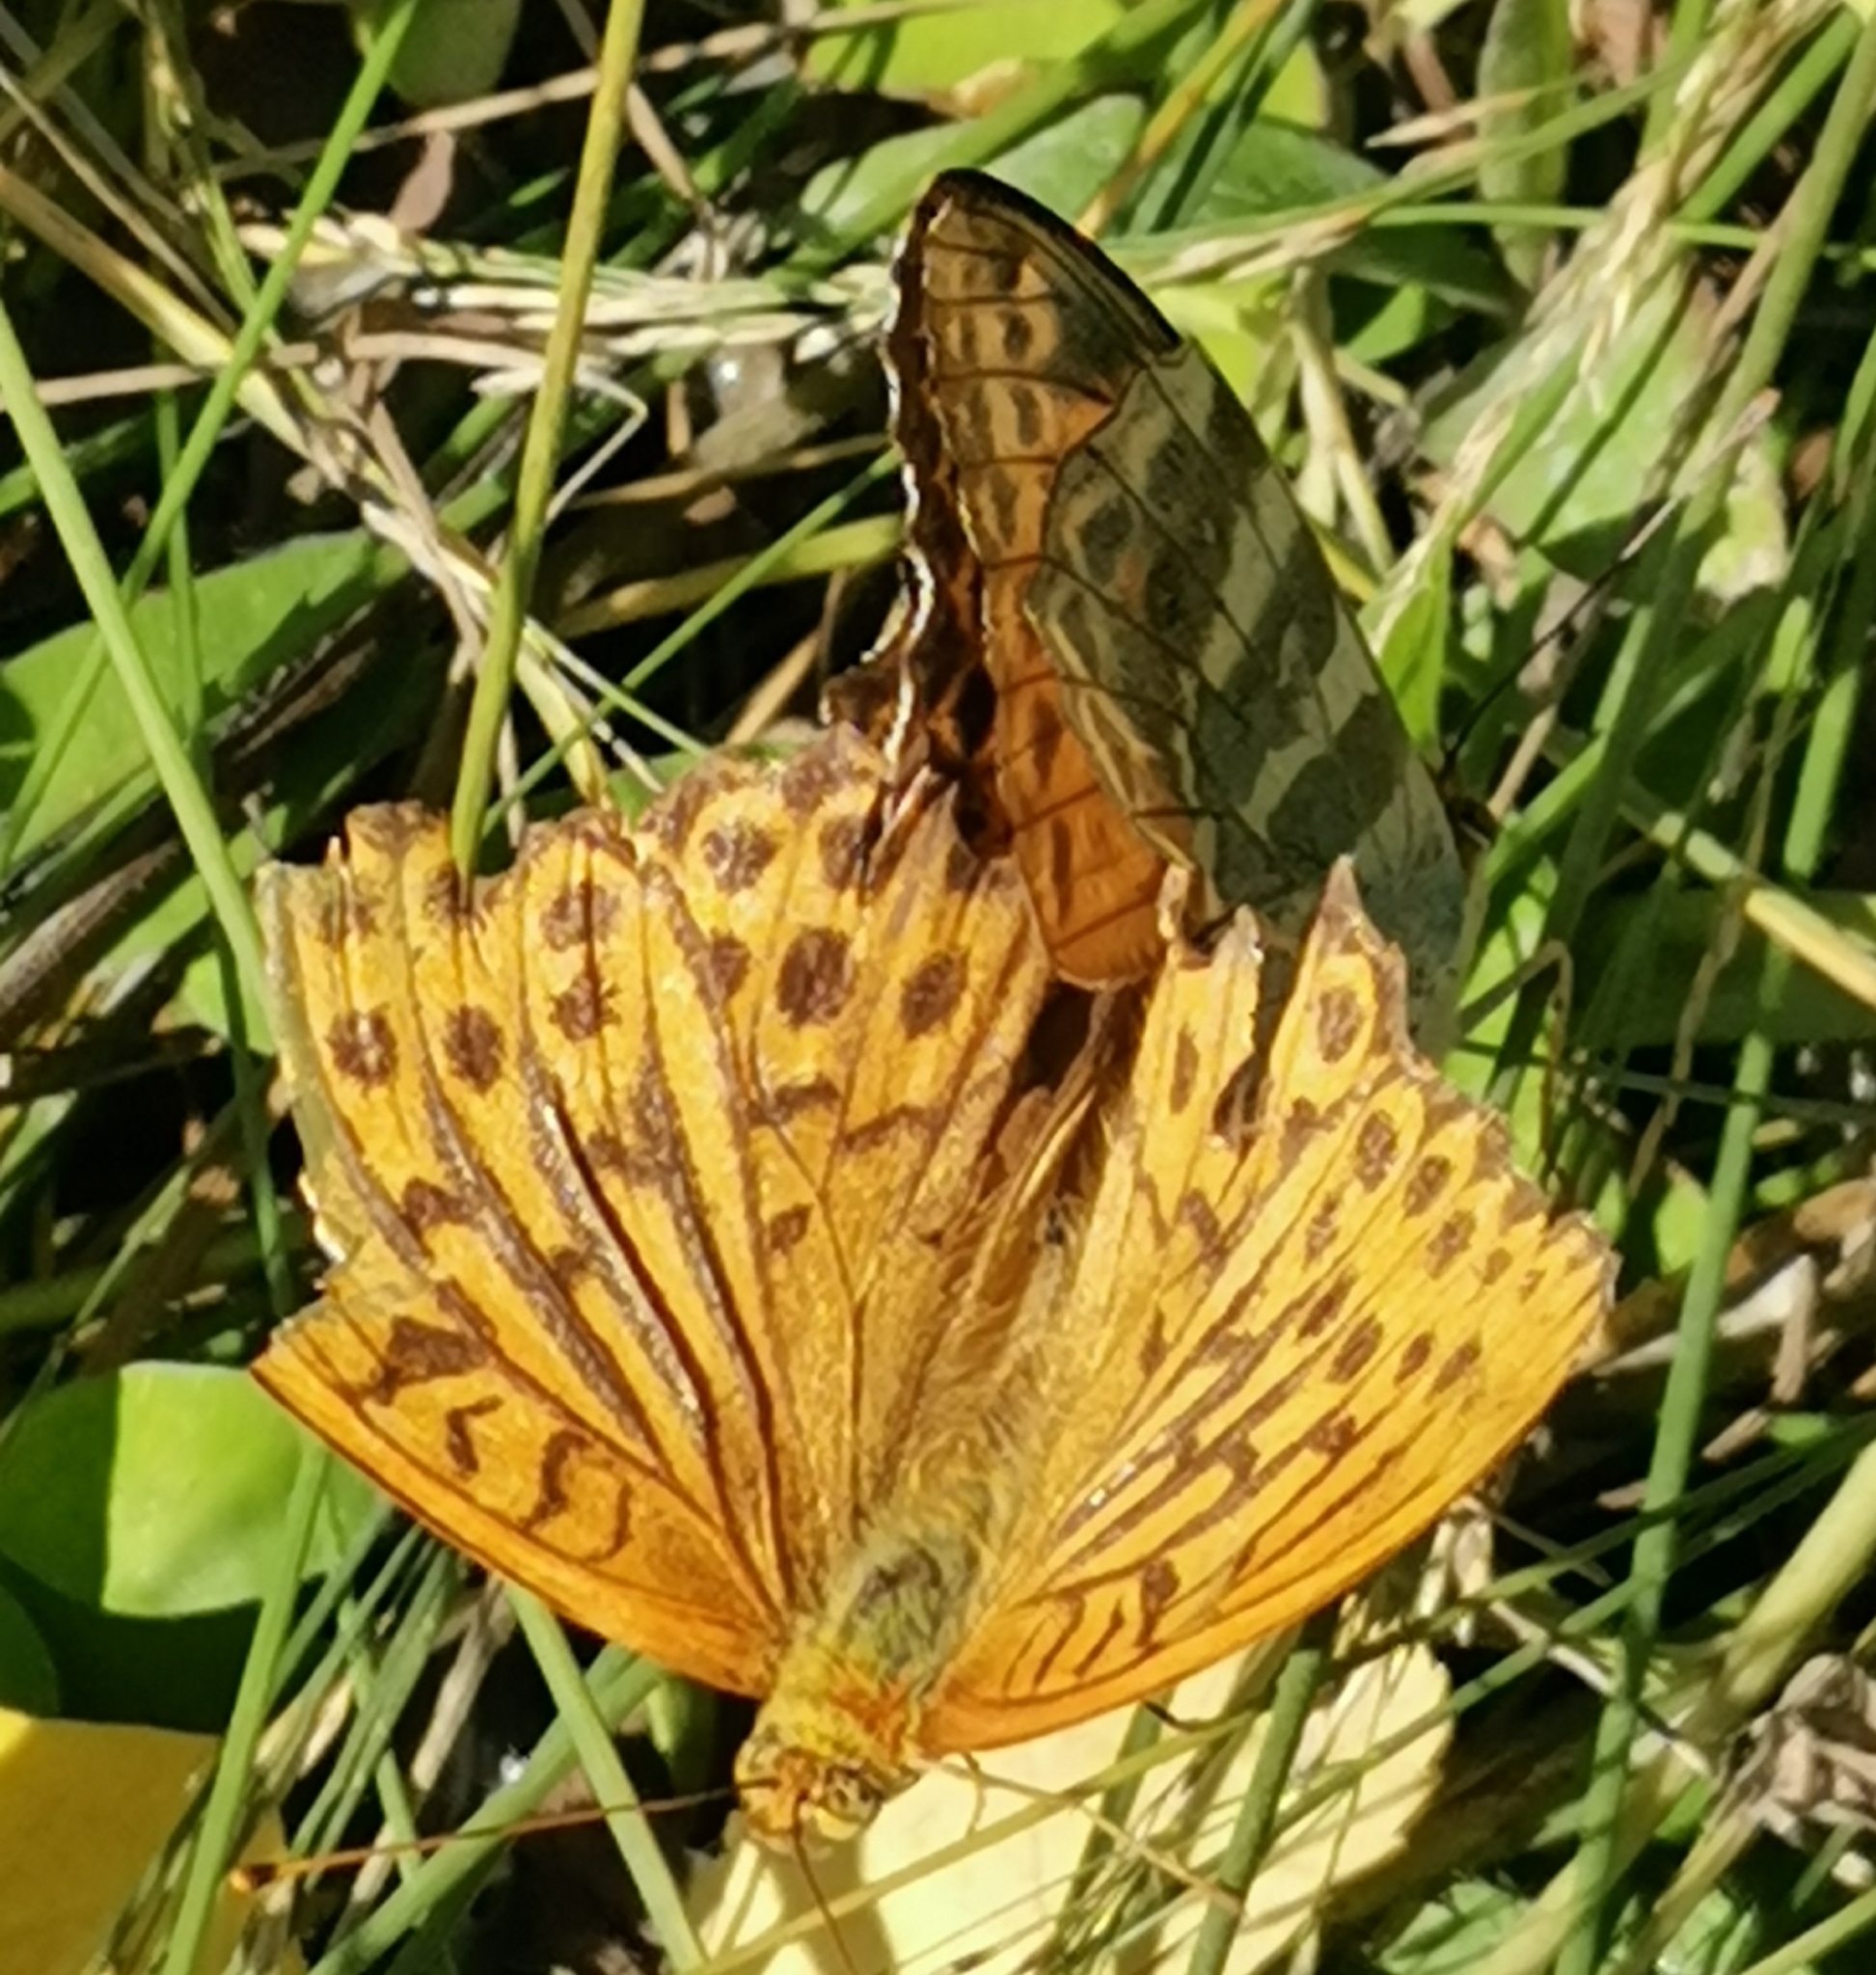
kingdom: Animalia
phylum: Arthropoda
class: Insecta
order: Lepidoptera
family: Nymphalidae
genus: Argynnis
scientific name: Argynnis paphia
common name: Silver-washed fritillary
